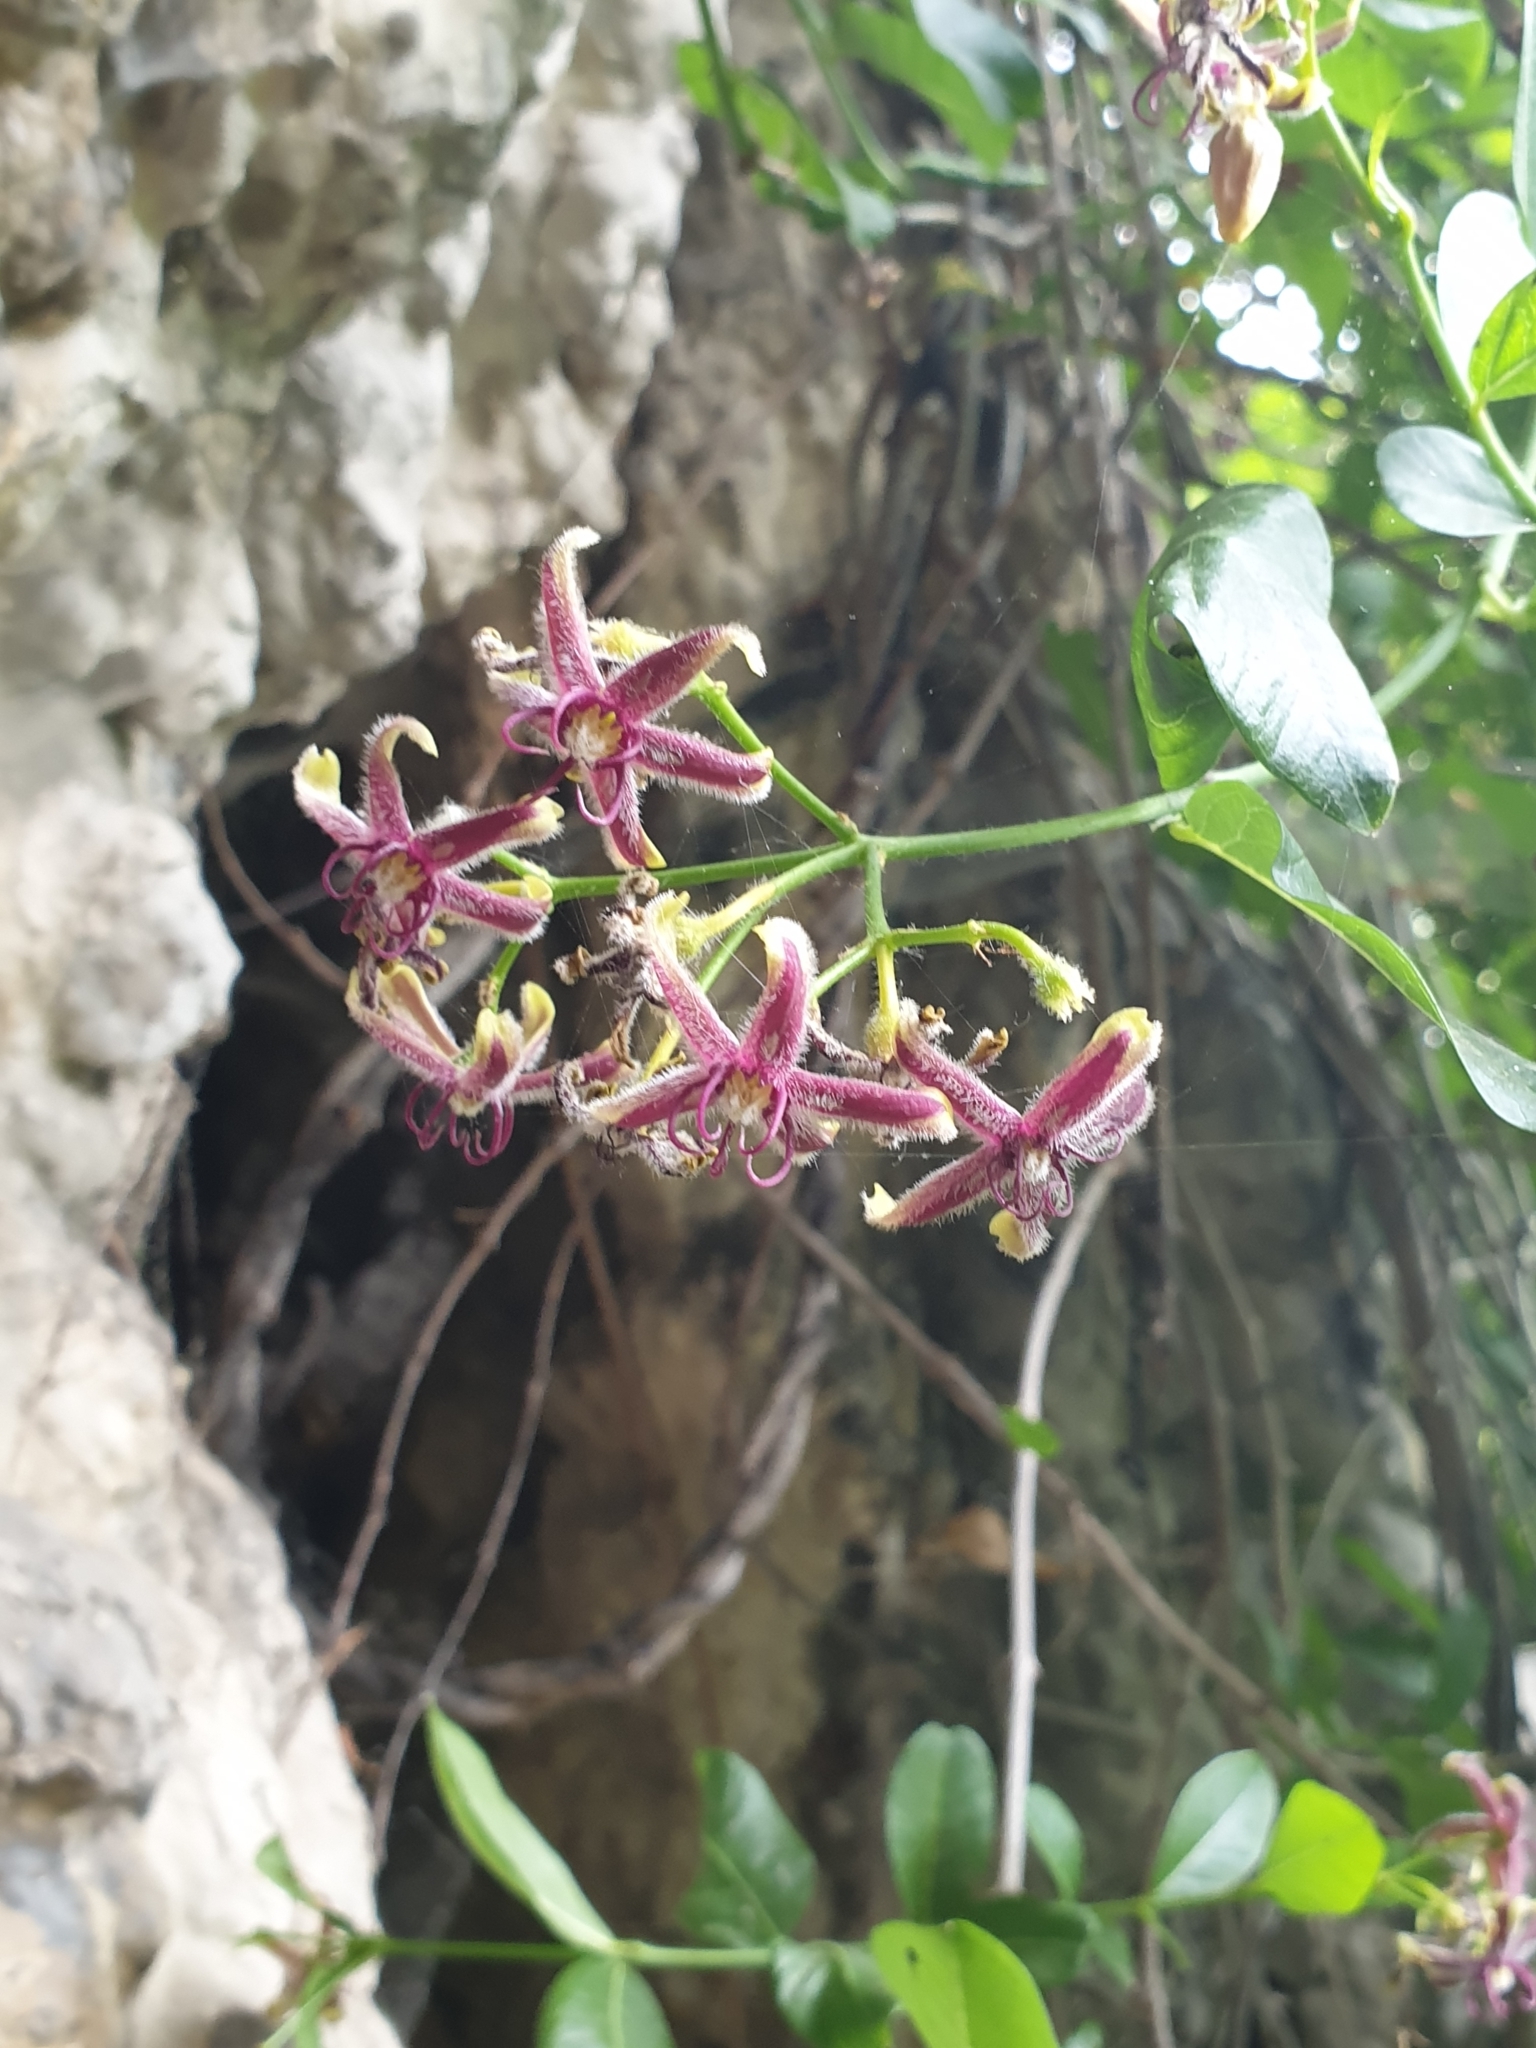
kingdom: Plantae
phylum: Tracheophyta
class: Magnoliopsida
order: Gentianales
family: Apocynaceae
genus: Periploca
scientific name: Periploca graeca
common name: Silkvine
